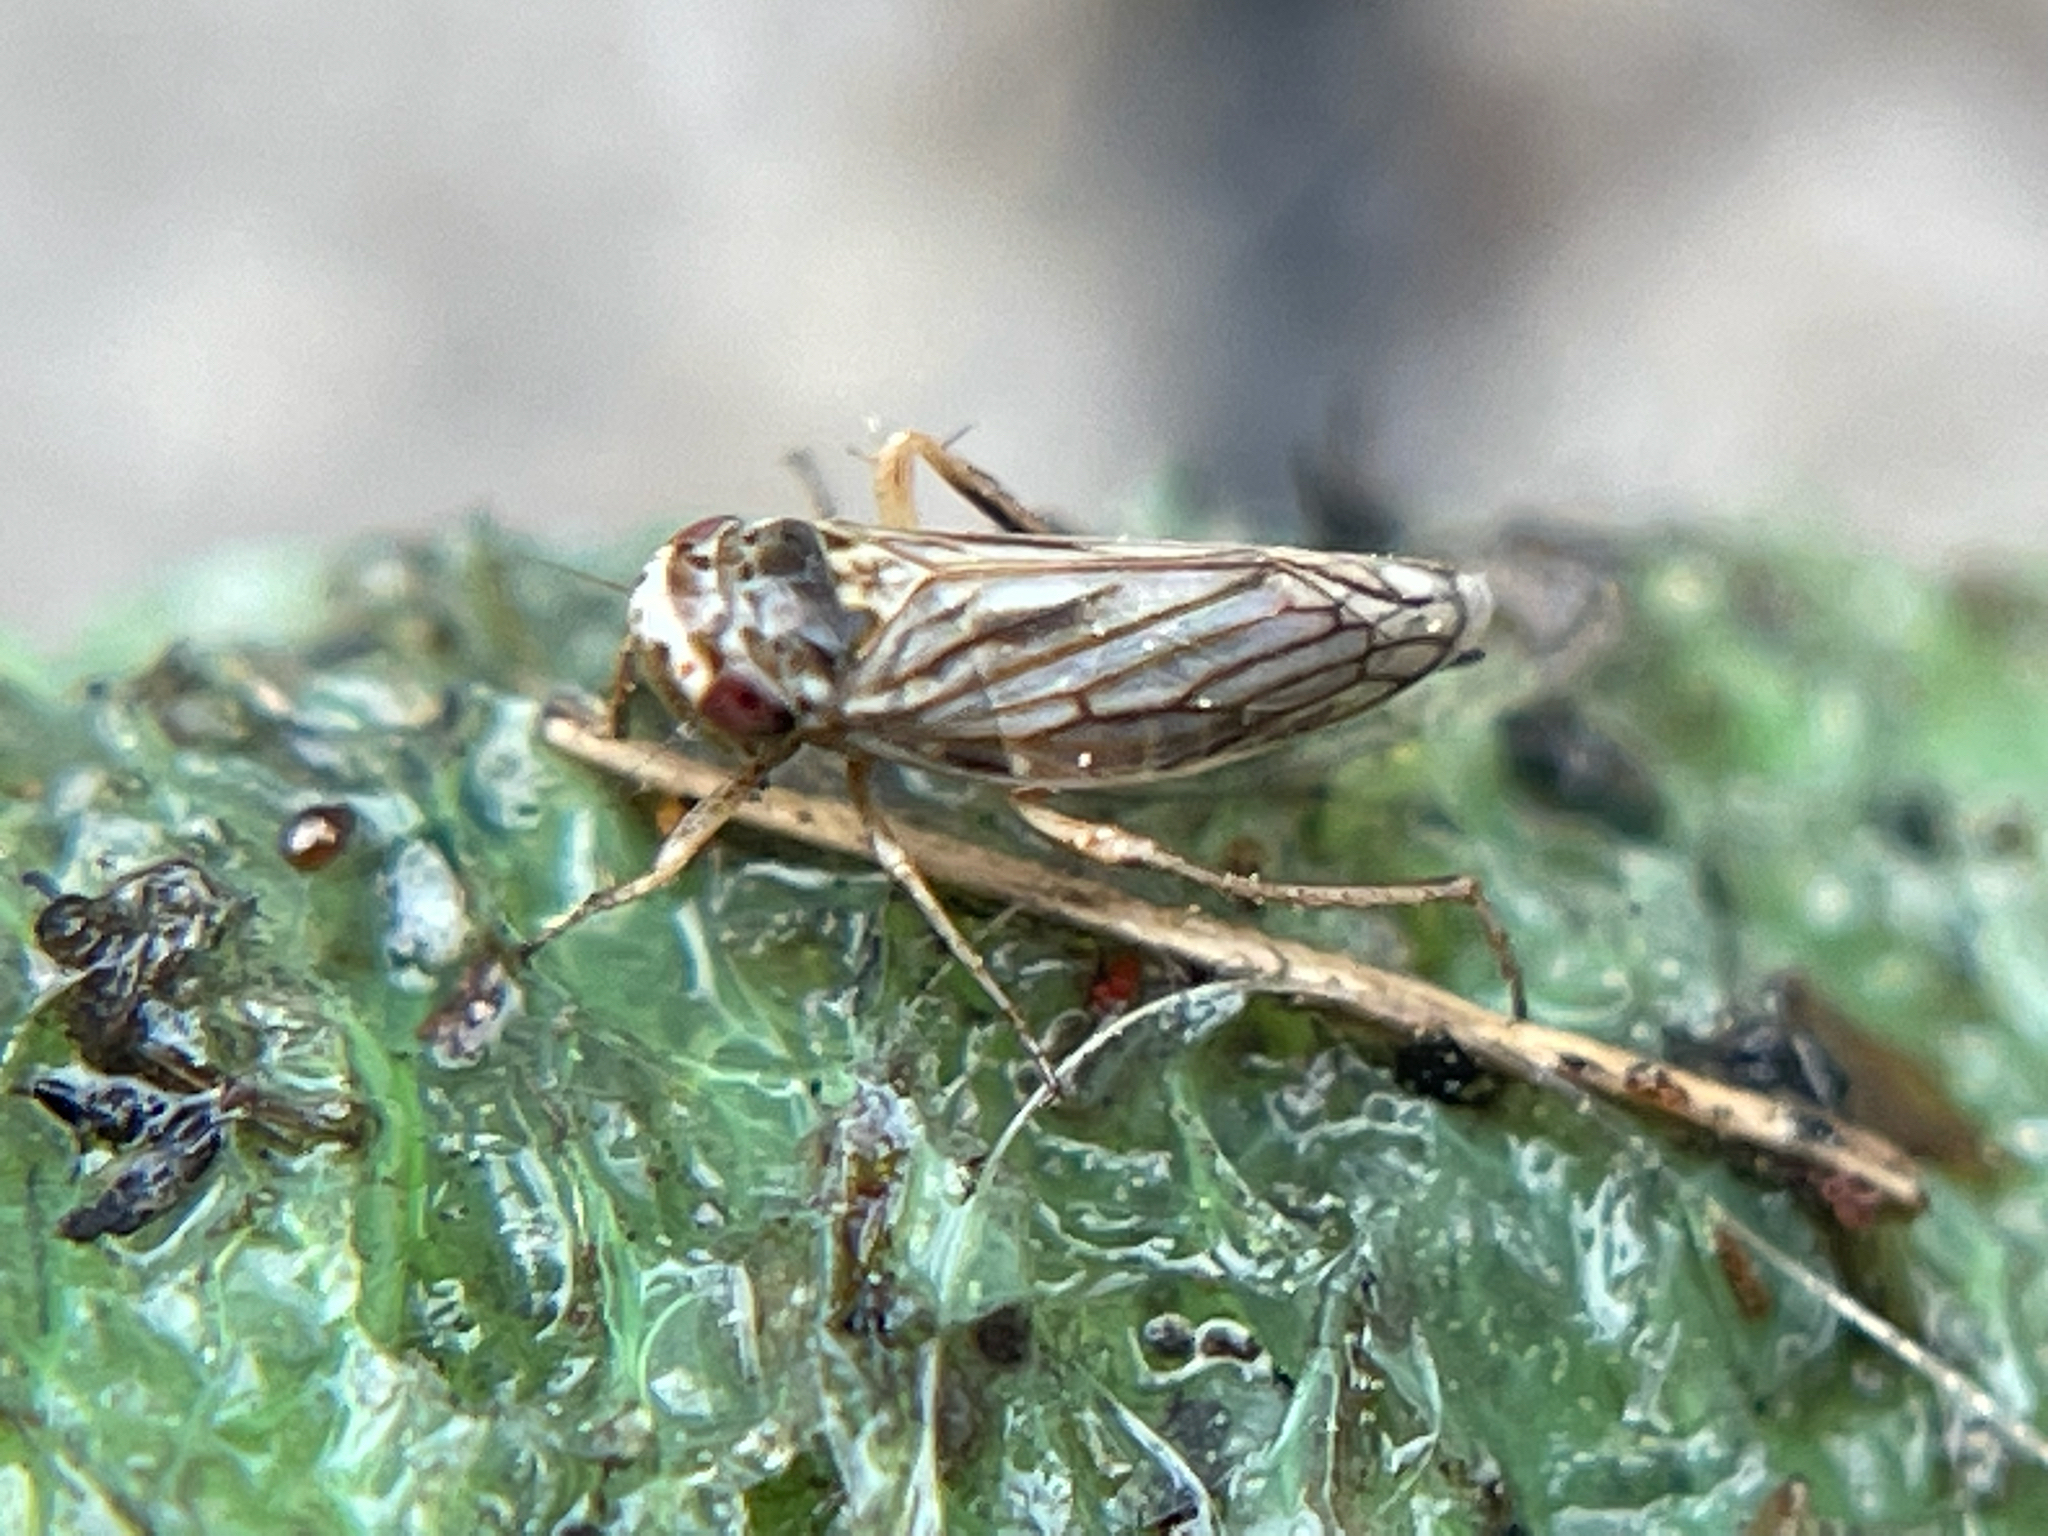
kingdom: Animalia
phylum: Arthropoda
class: Insecta
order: Hemiptera
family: Cicadellidae
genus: Exitianus
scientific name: Exitianus exitiosus
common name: Gray lawn leafhopper
